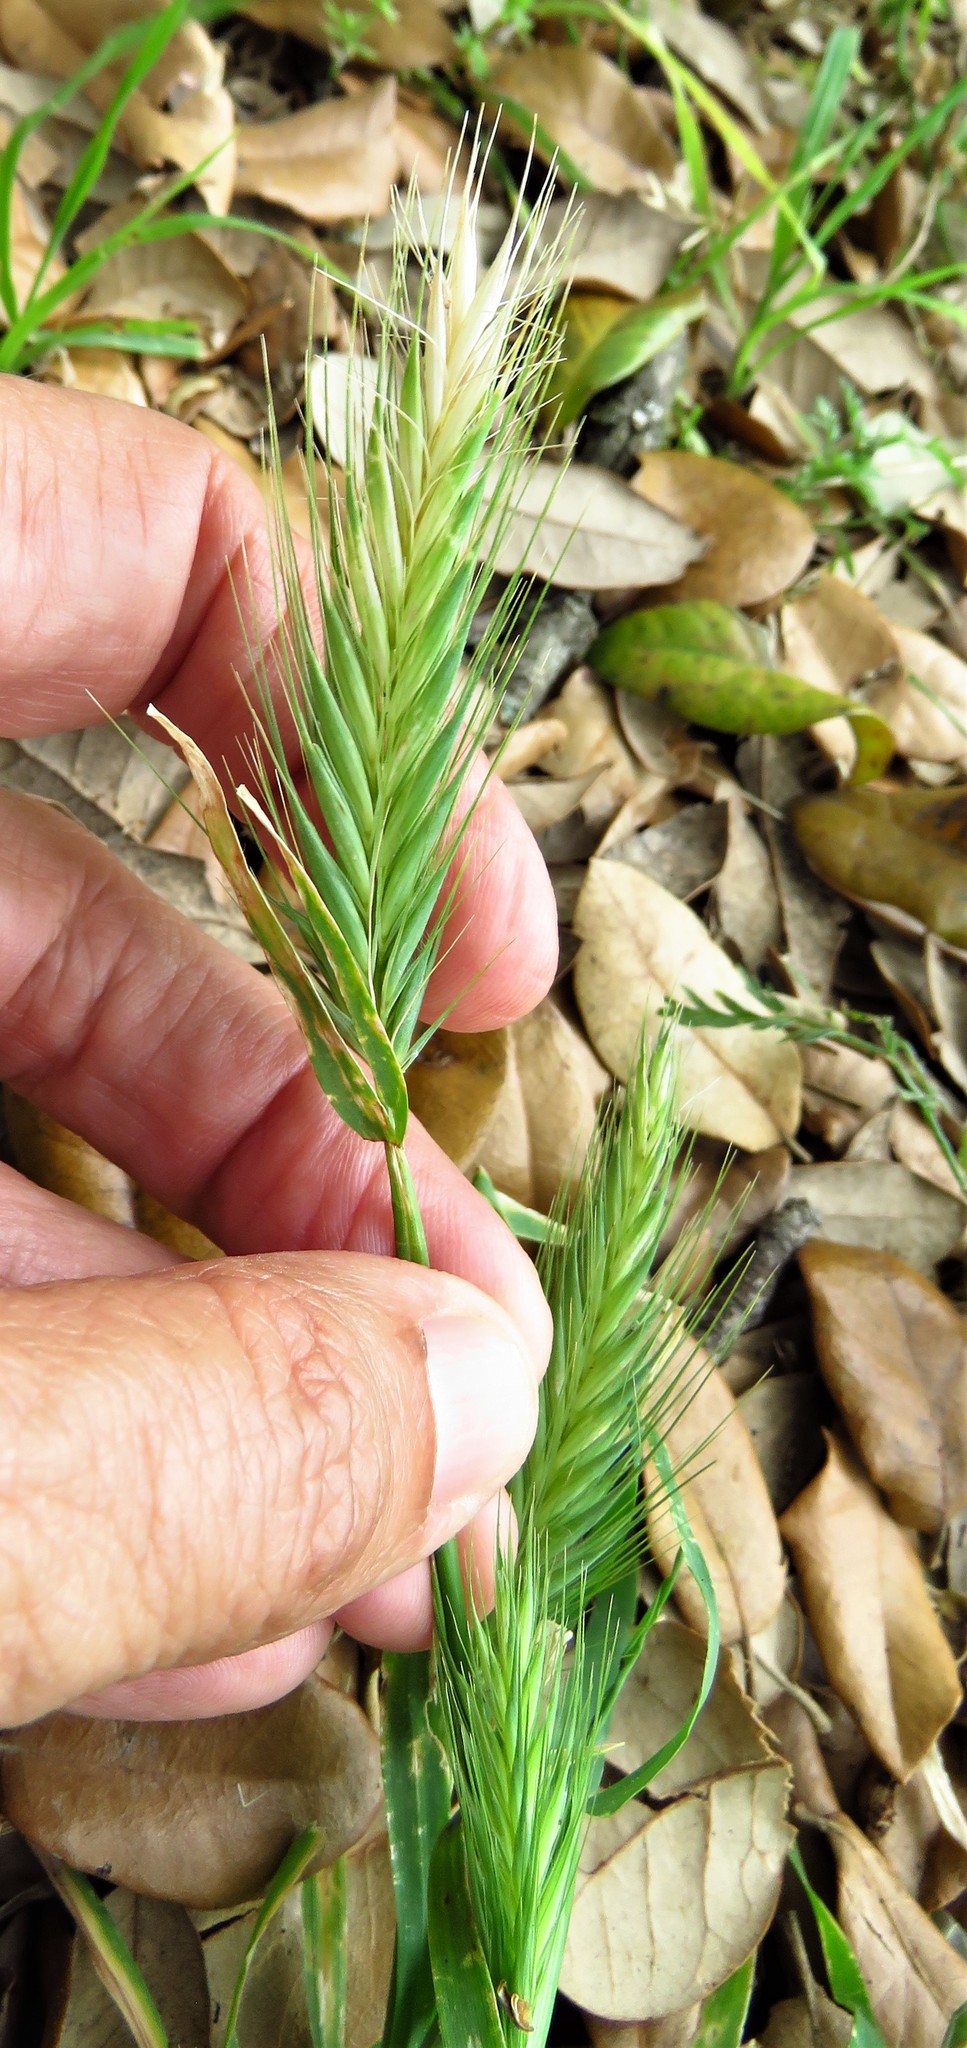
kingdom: Plantae
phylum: Tracheophyta
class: Liliopsida
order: Poales
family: Poaceae
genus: Hordeum
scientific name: Hordeum murinum
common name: Wall barley
